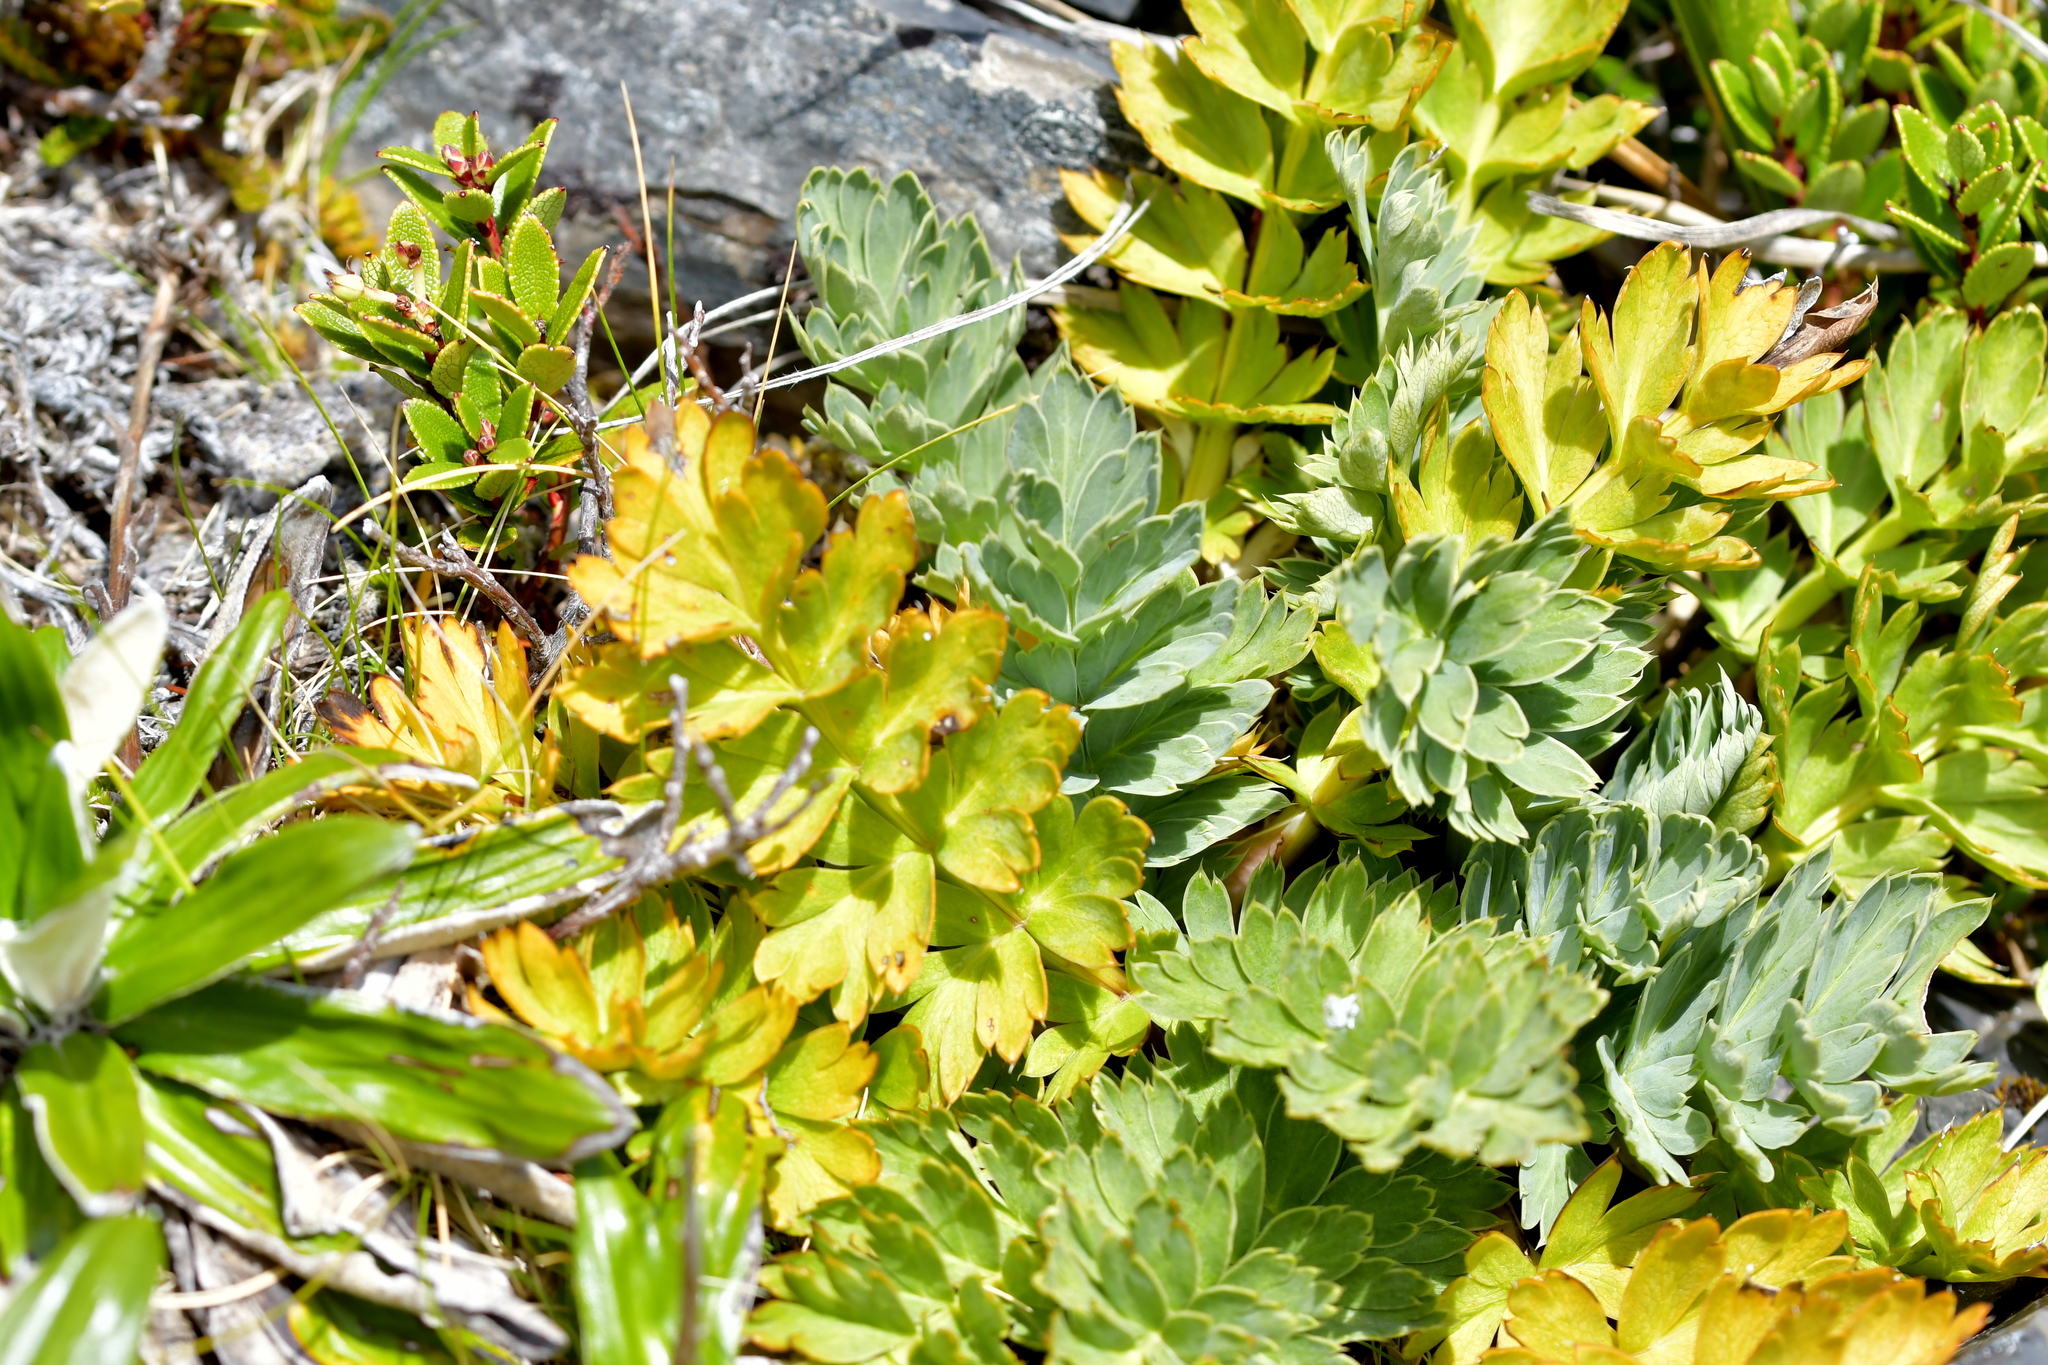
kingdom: Plantae
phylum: Tracheophyta
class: Magnoliopsida
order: Apiales
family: Apiaceae
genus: Anisotome
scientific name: Anisotome pilifera
